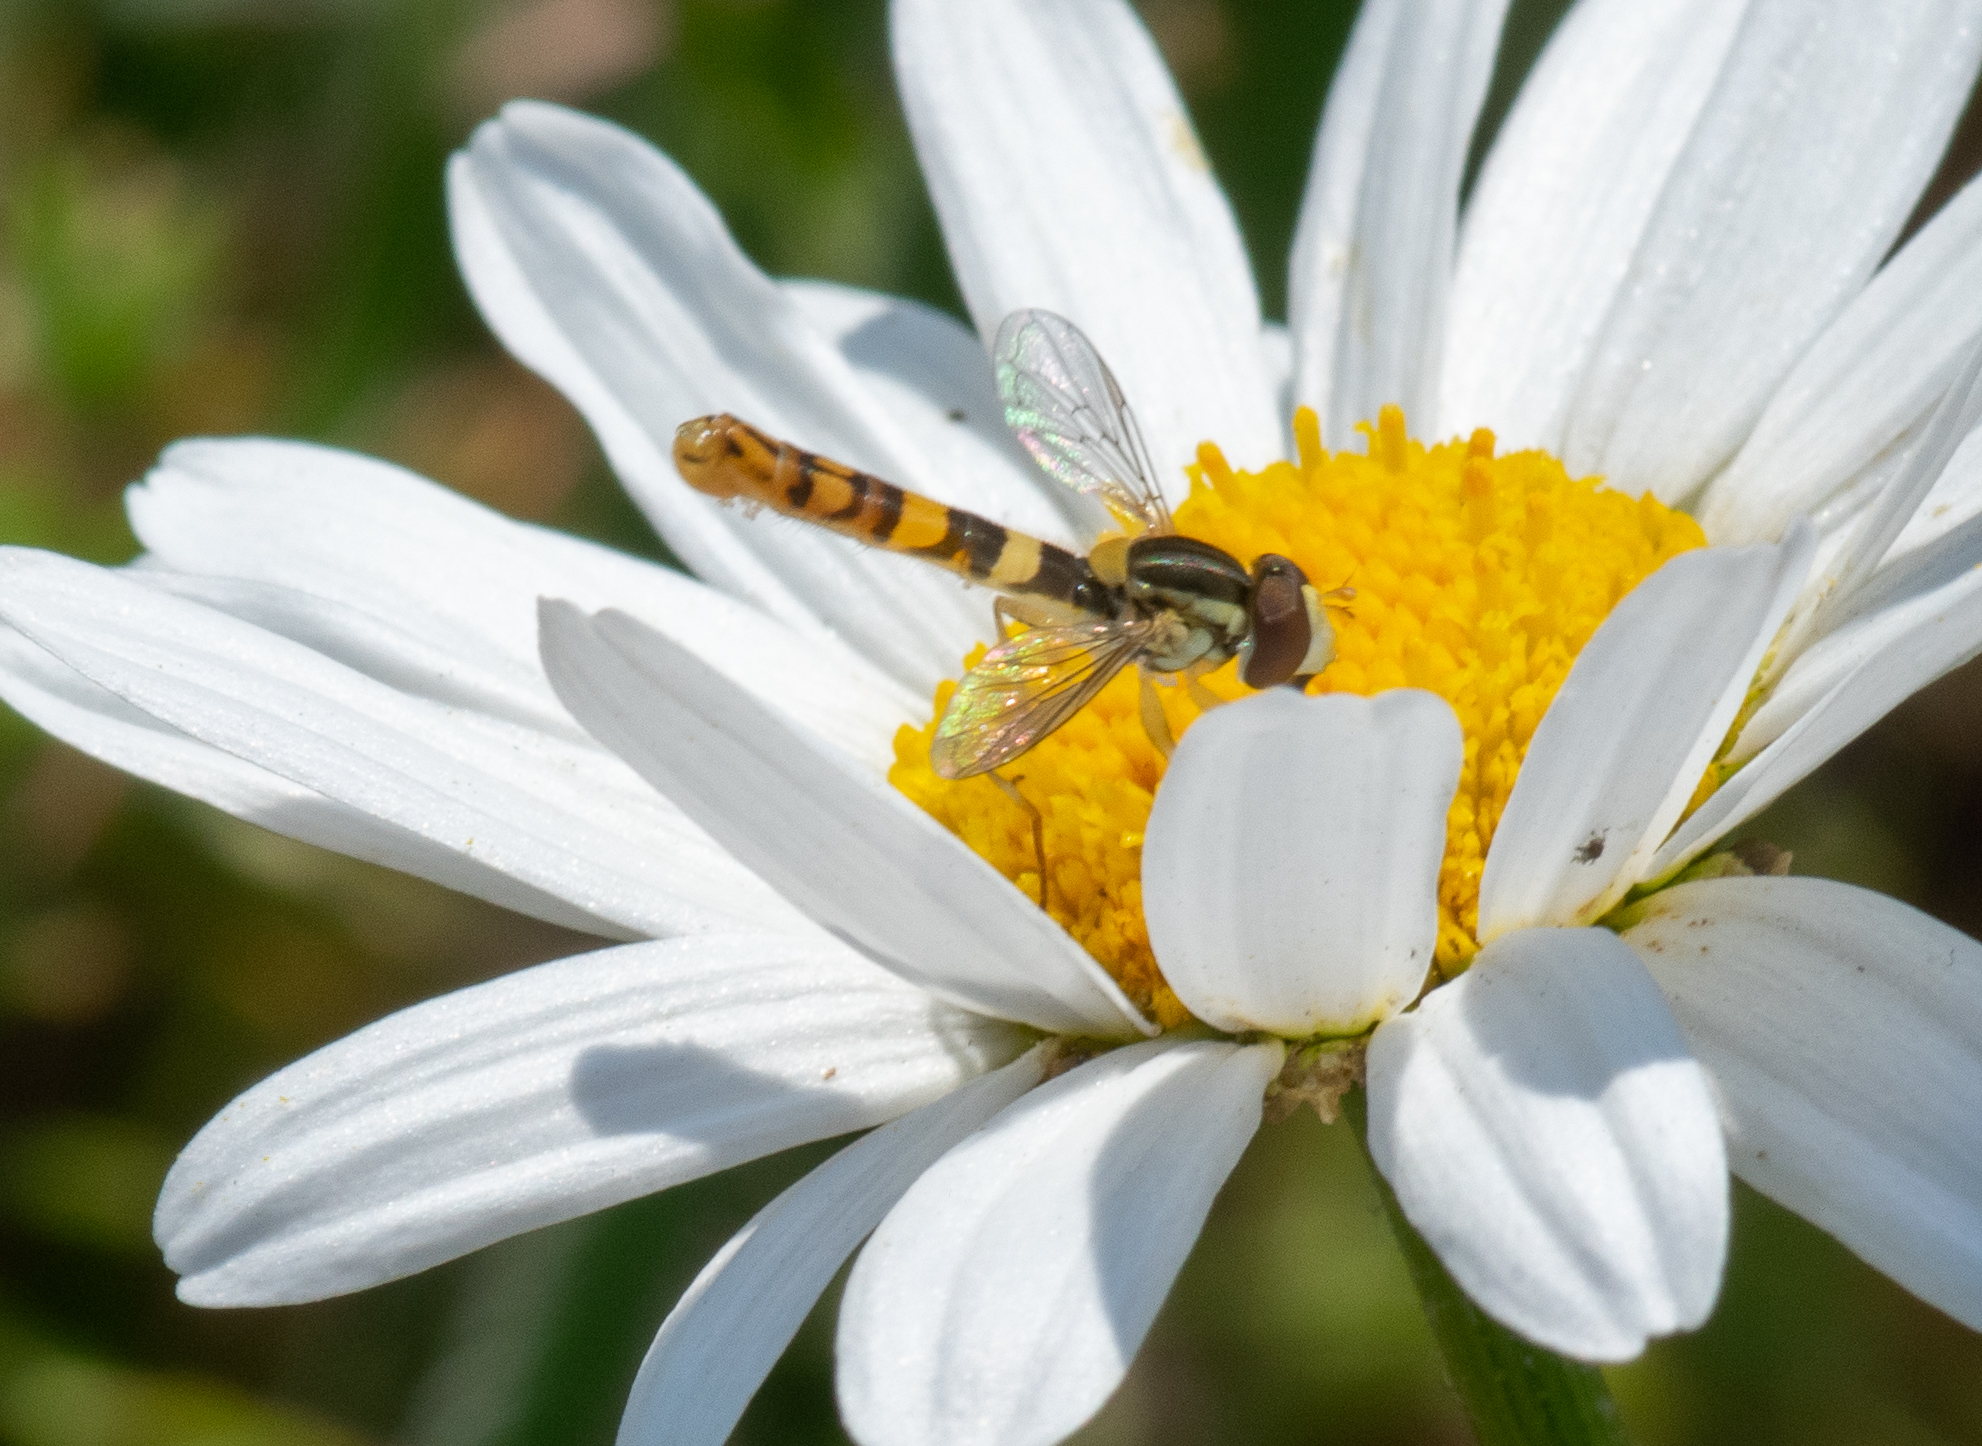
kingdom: Animalia
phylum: Arthropoda
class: Insecta
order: Diptera
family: Syrphidae
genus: Sphaerophoria
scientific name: Sphaerophoria scripta
